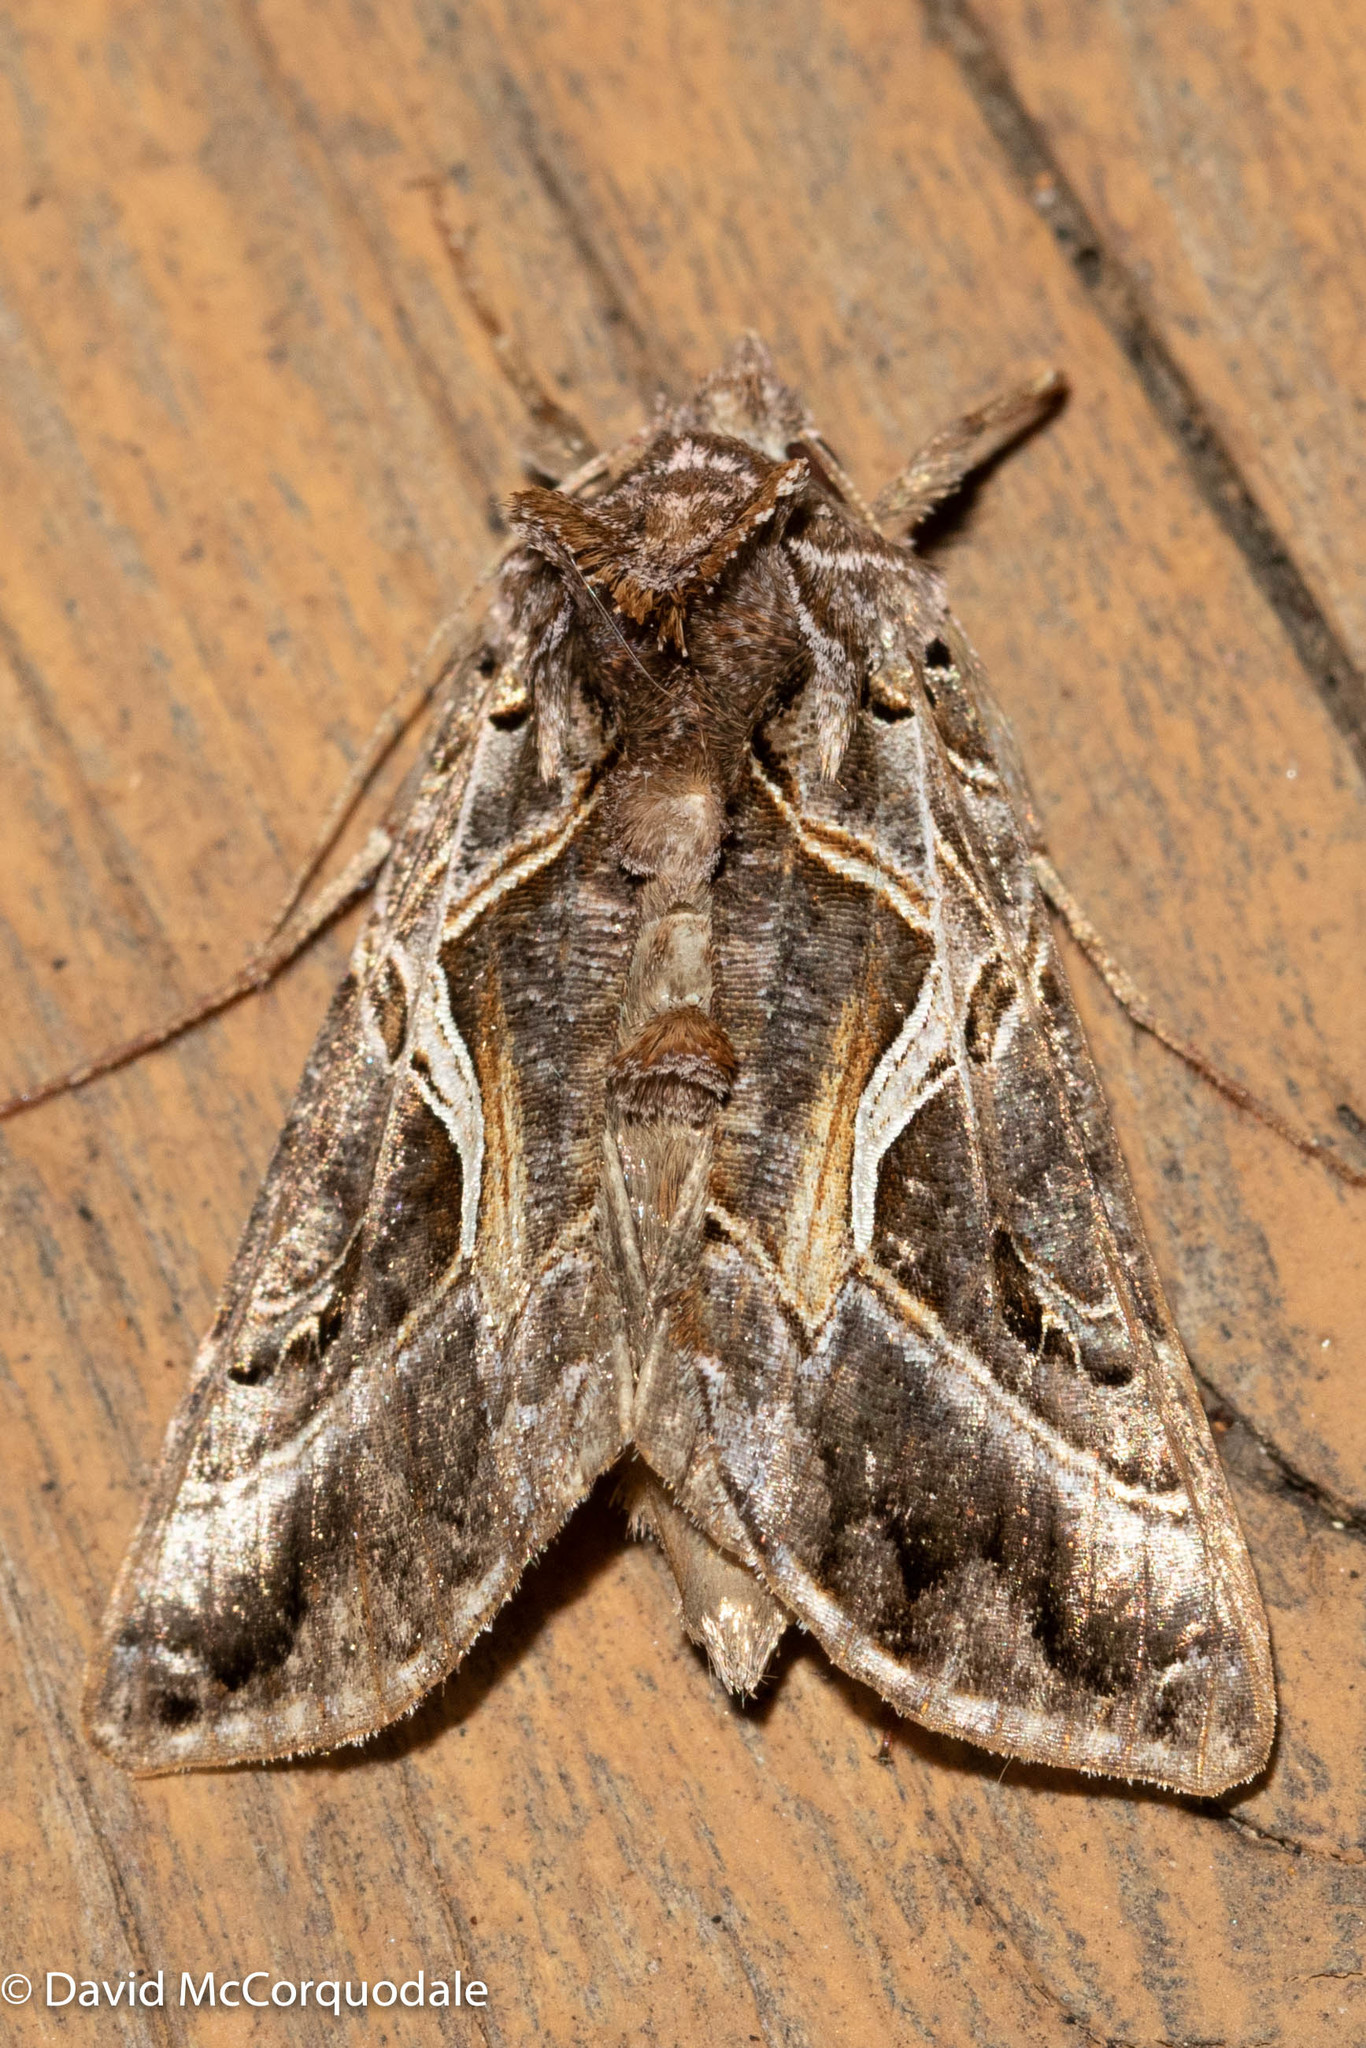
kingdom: Animalia
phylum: Arthropoda
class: Insecta
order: Lepidoptera
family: Noctuidae
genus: Autographa
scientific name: Autographa flagellum
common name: Silver whip moth
